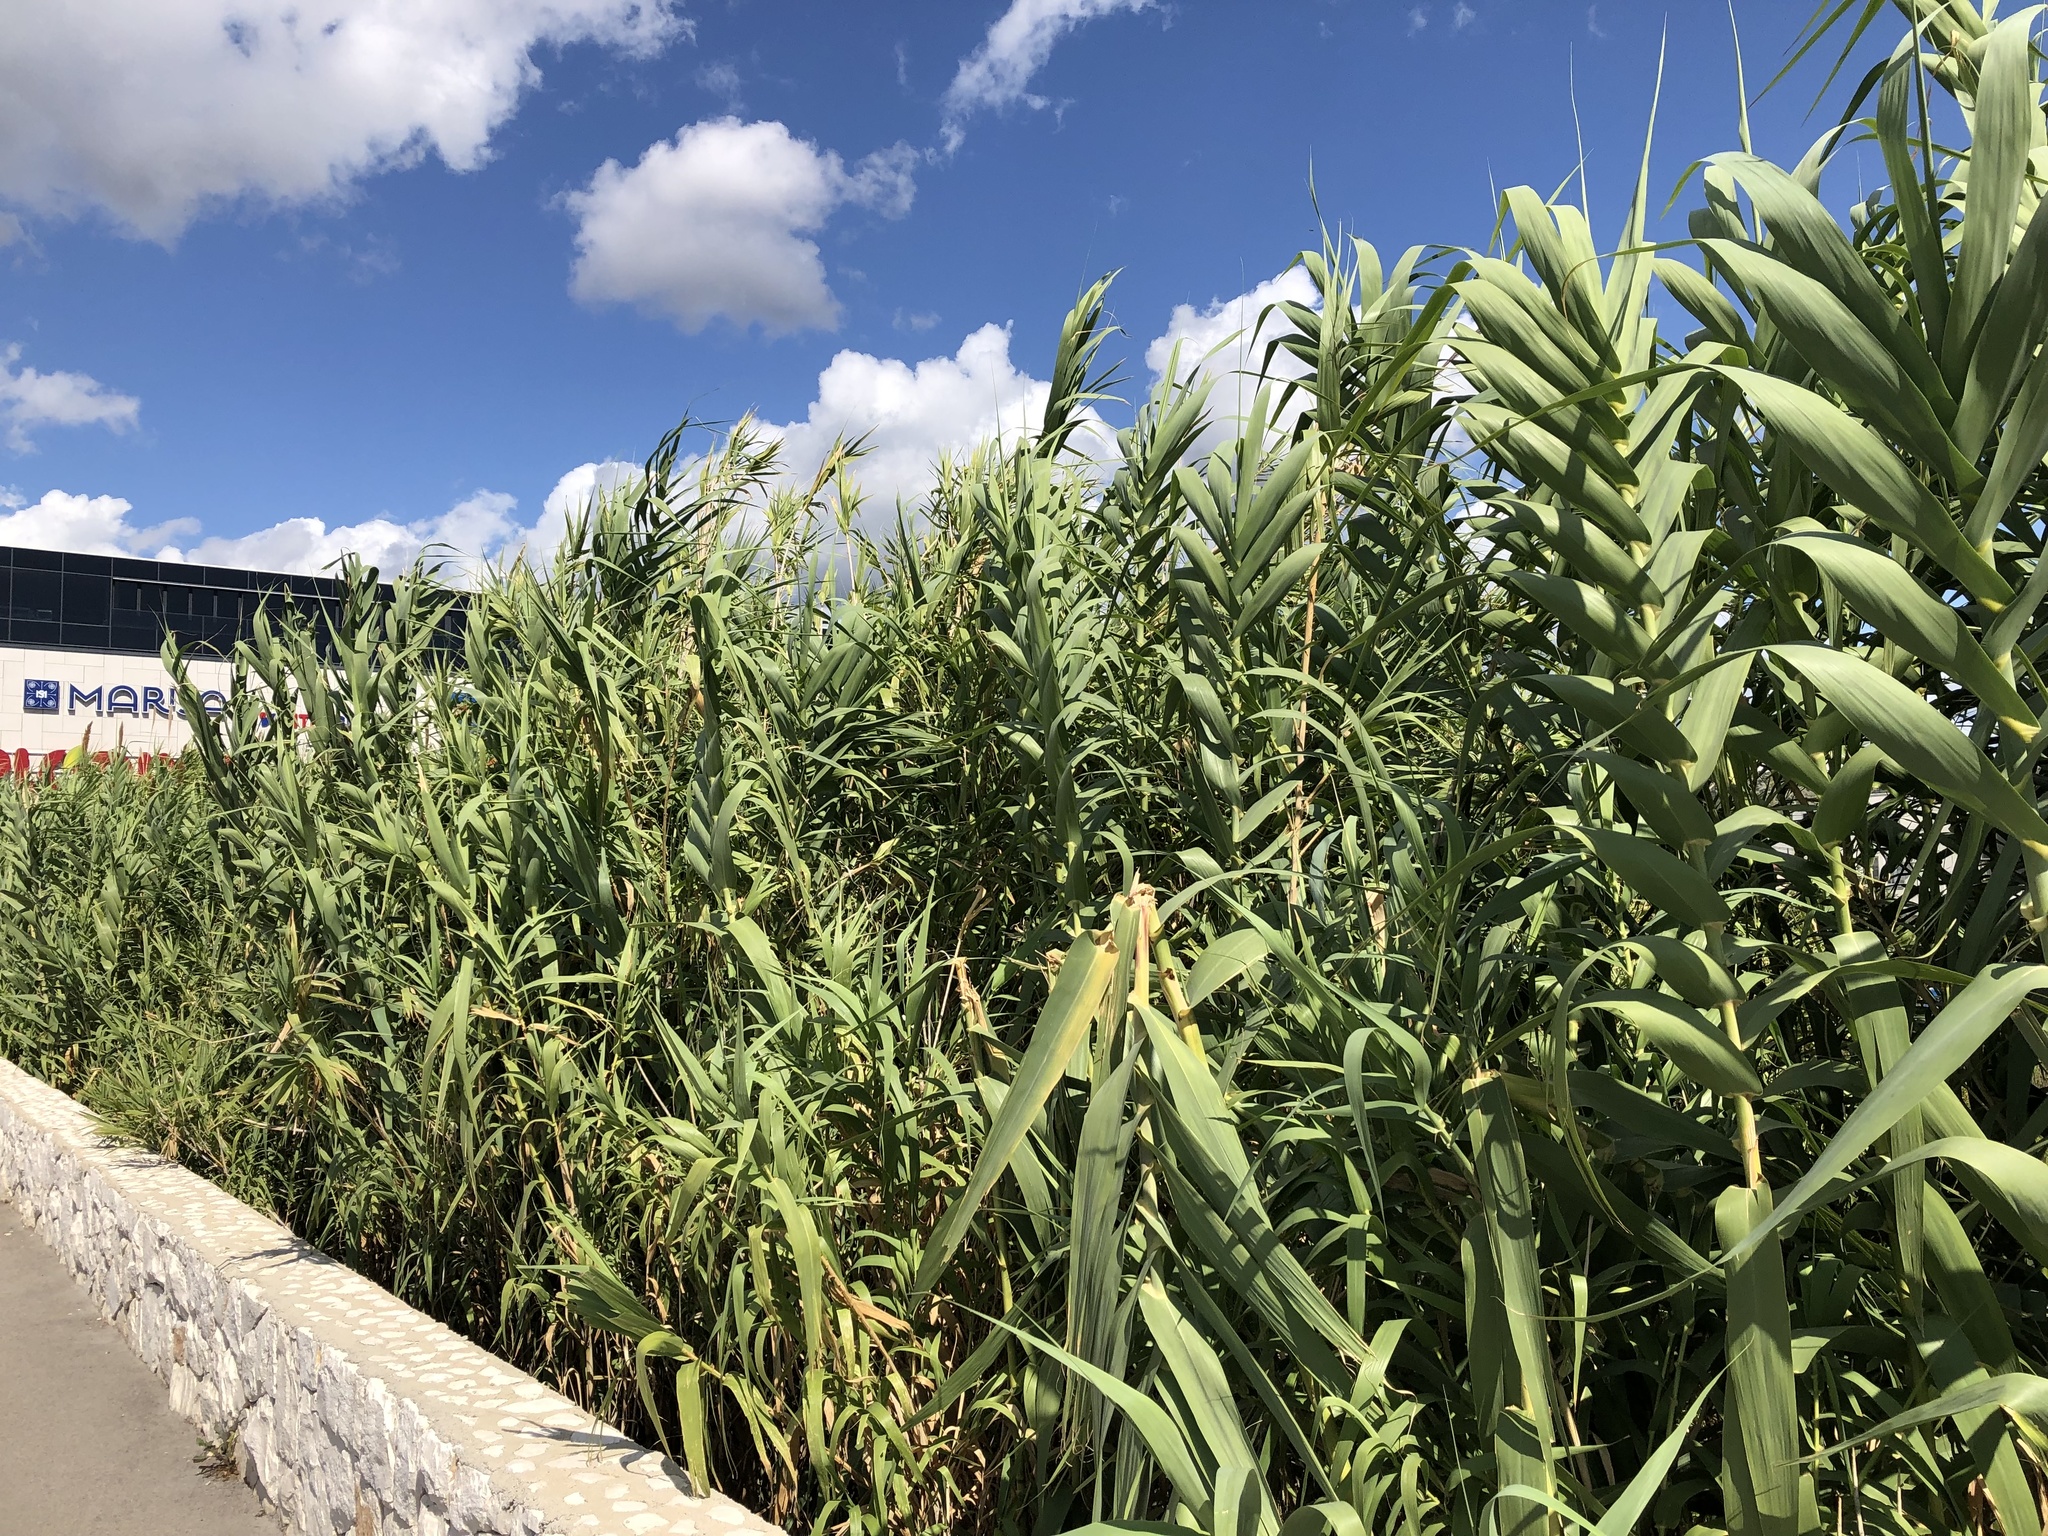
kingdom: Plantae
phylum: Tracheophyta
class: Liliopsida
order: Poales
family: Poaceae
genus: Arundo
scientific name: Arundo donax
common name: Giant reed
